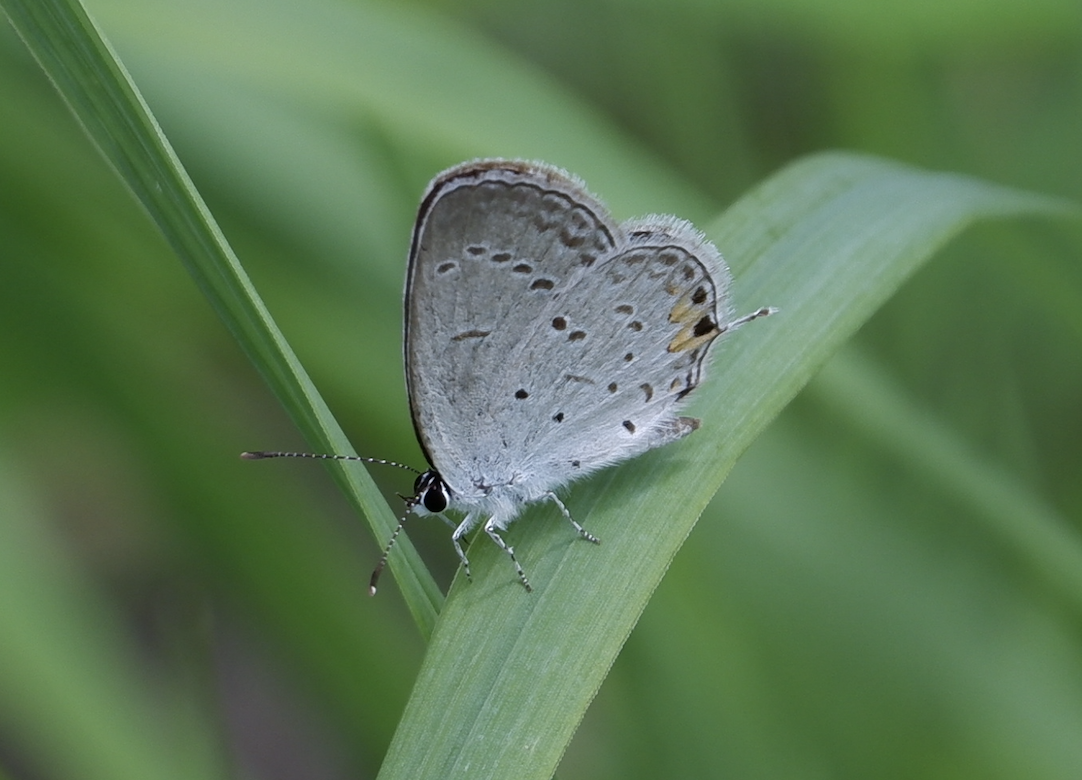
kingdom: Animalia
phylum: Arthropoda
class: Insecta
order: Lepidoptera
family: Lycaenidae
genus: Elkalyce
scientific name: Elkalyce comyntas
